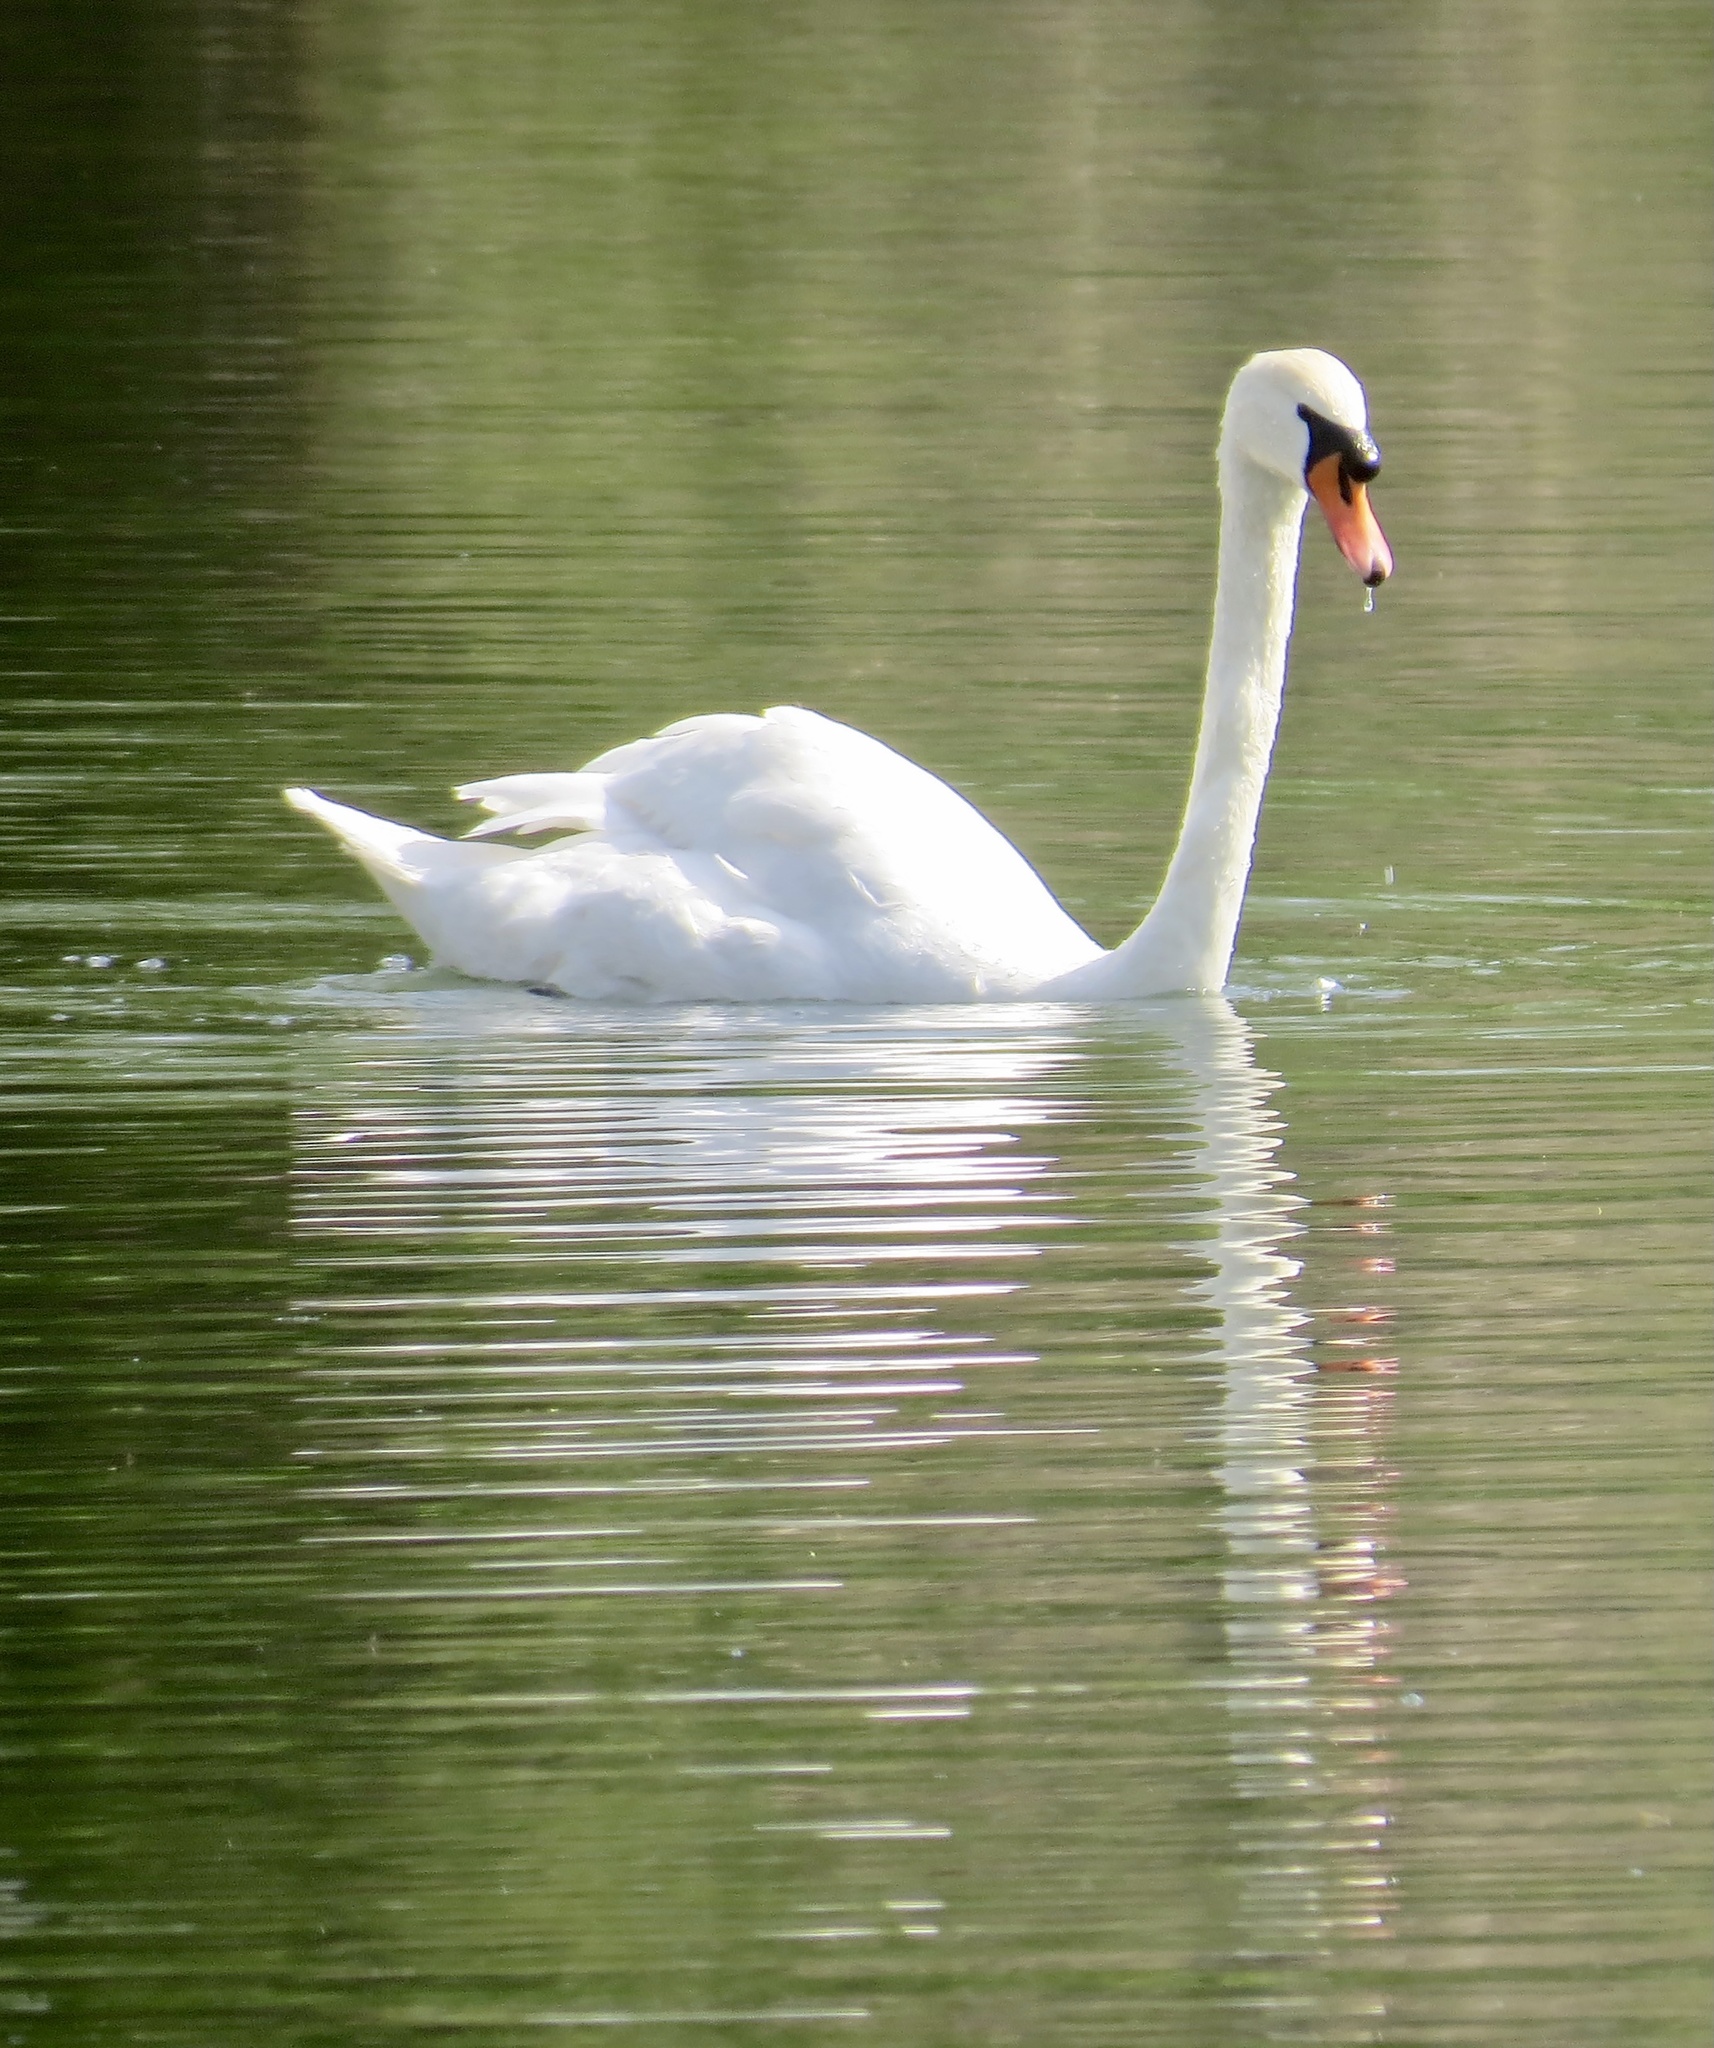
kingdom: Animalia
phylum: Chordata
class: Aves
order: Anseriformes
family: Anatidae
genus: Cygnus
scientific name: Cygnus olor
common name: Mute swan
